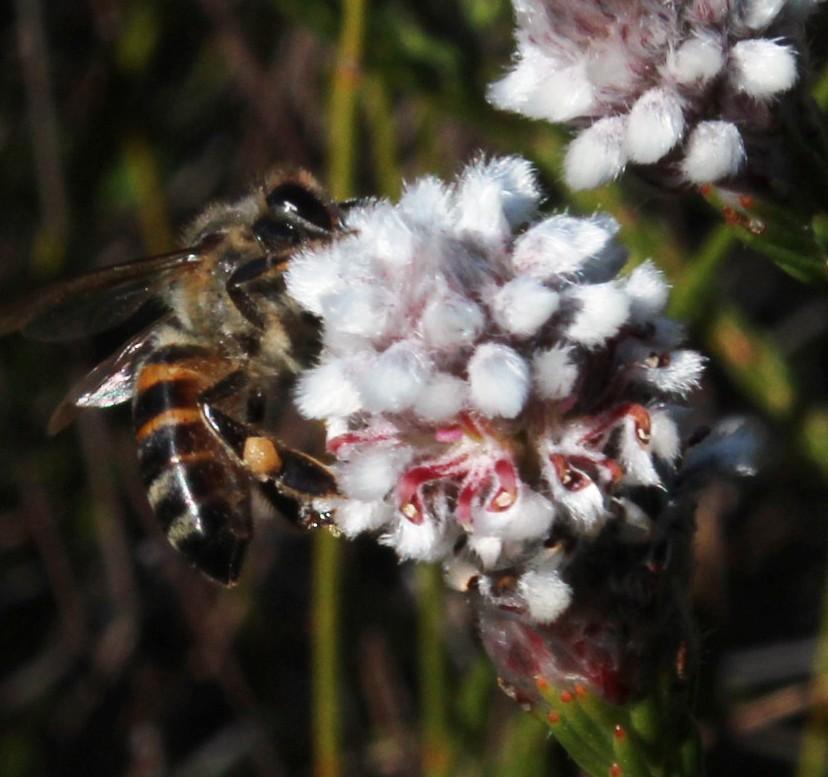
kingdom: Animalia
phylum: Arthropoda
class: Insecta
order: Hymenoptera
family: Apidae
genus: Apis
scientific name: Apis mellifera
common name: Honey bee
